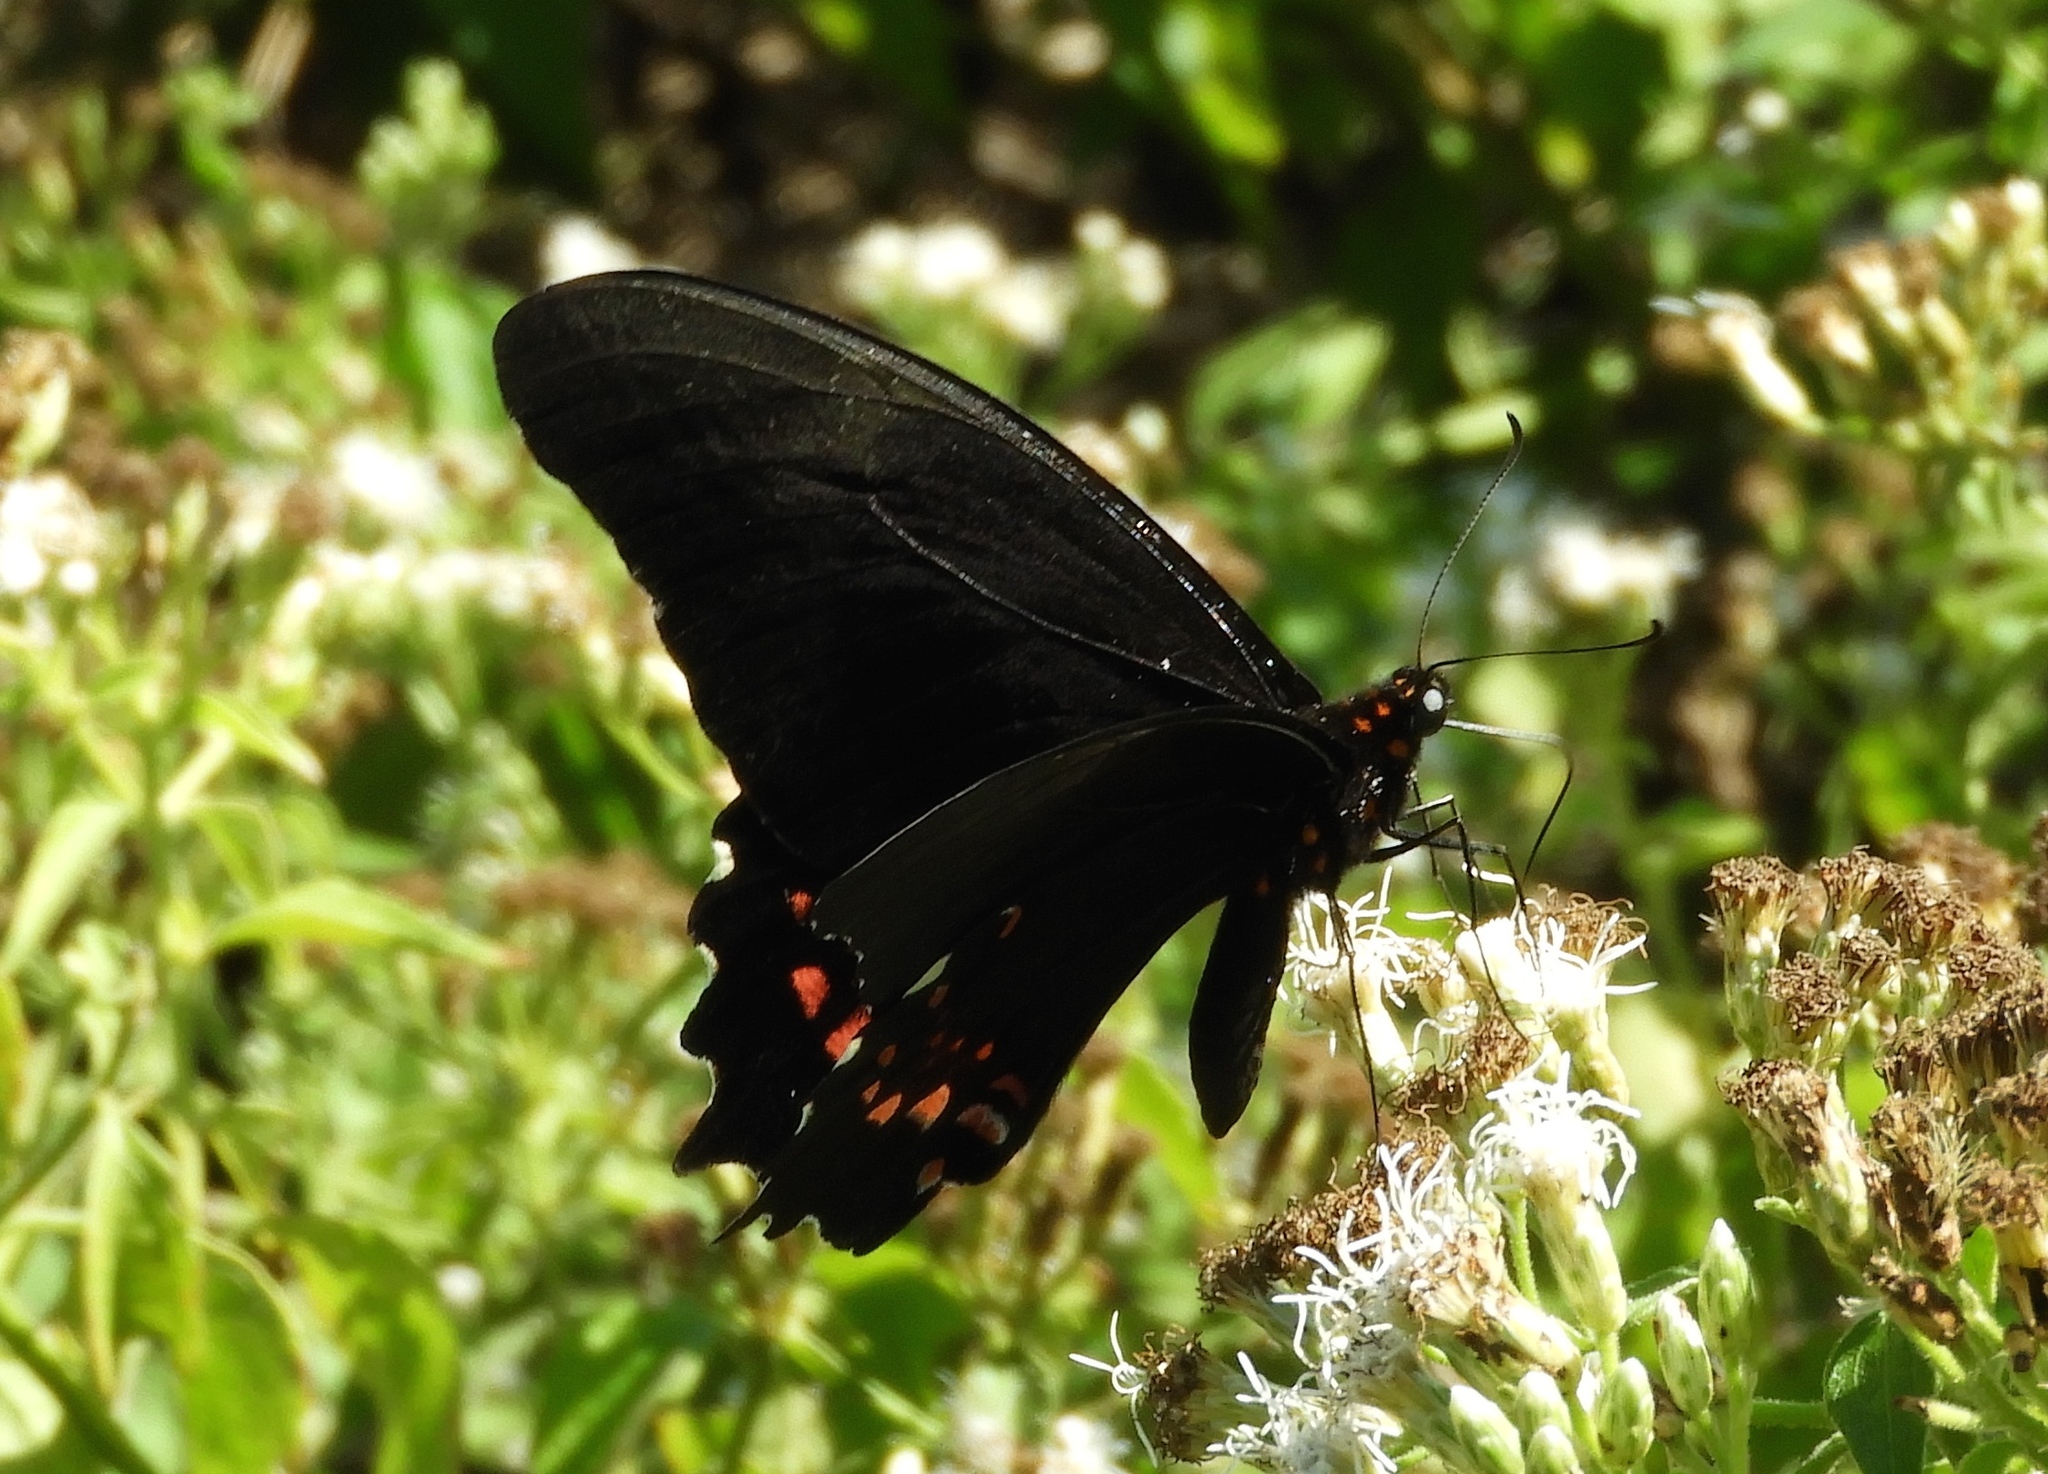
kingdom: Animalia
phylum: Arthropoda
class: Insecta
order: Lepidoptera
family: Papilionidae
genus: Heraclides
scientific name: Heraclides rogeri
